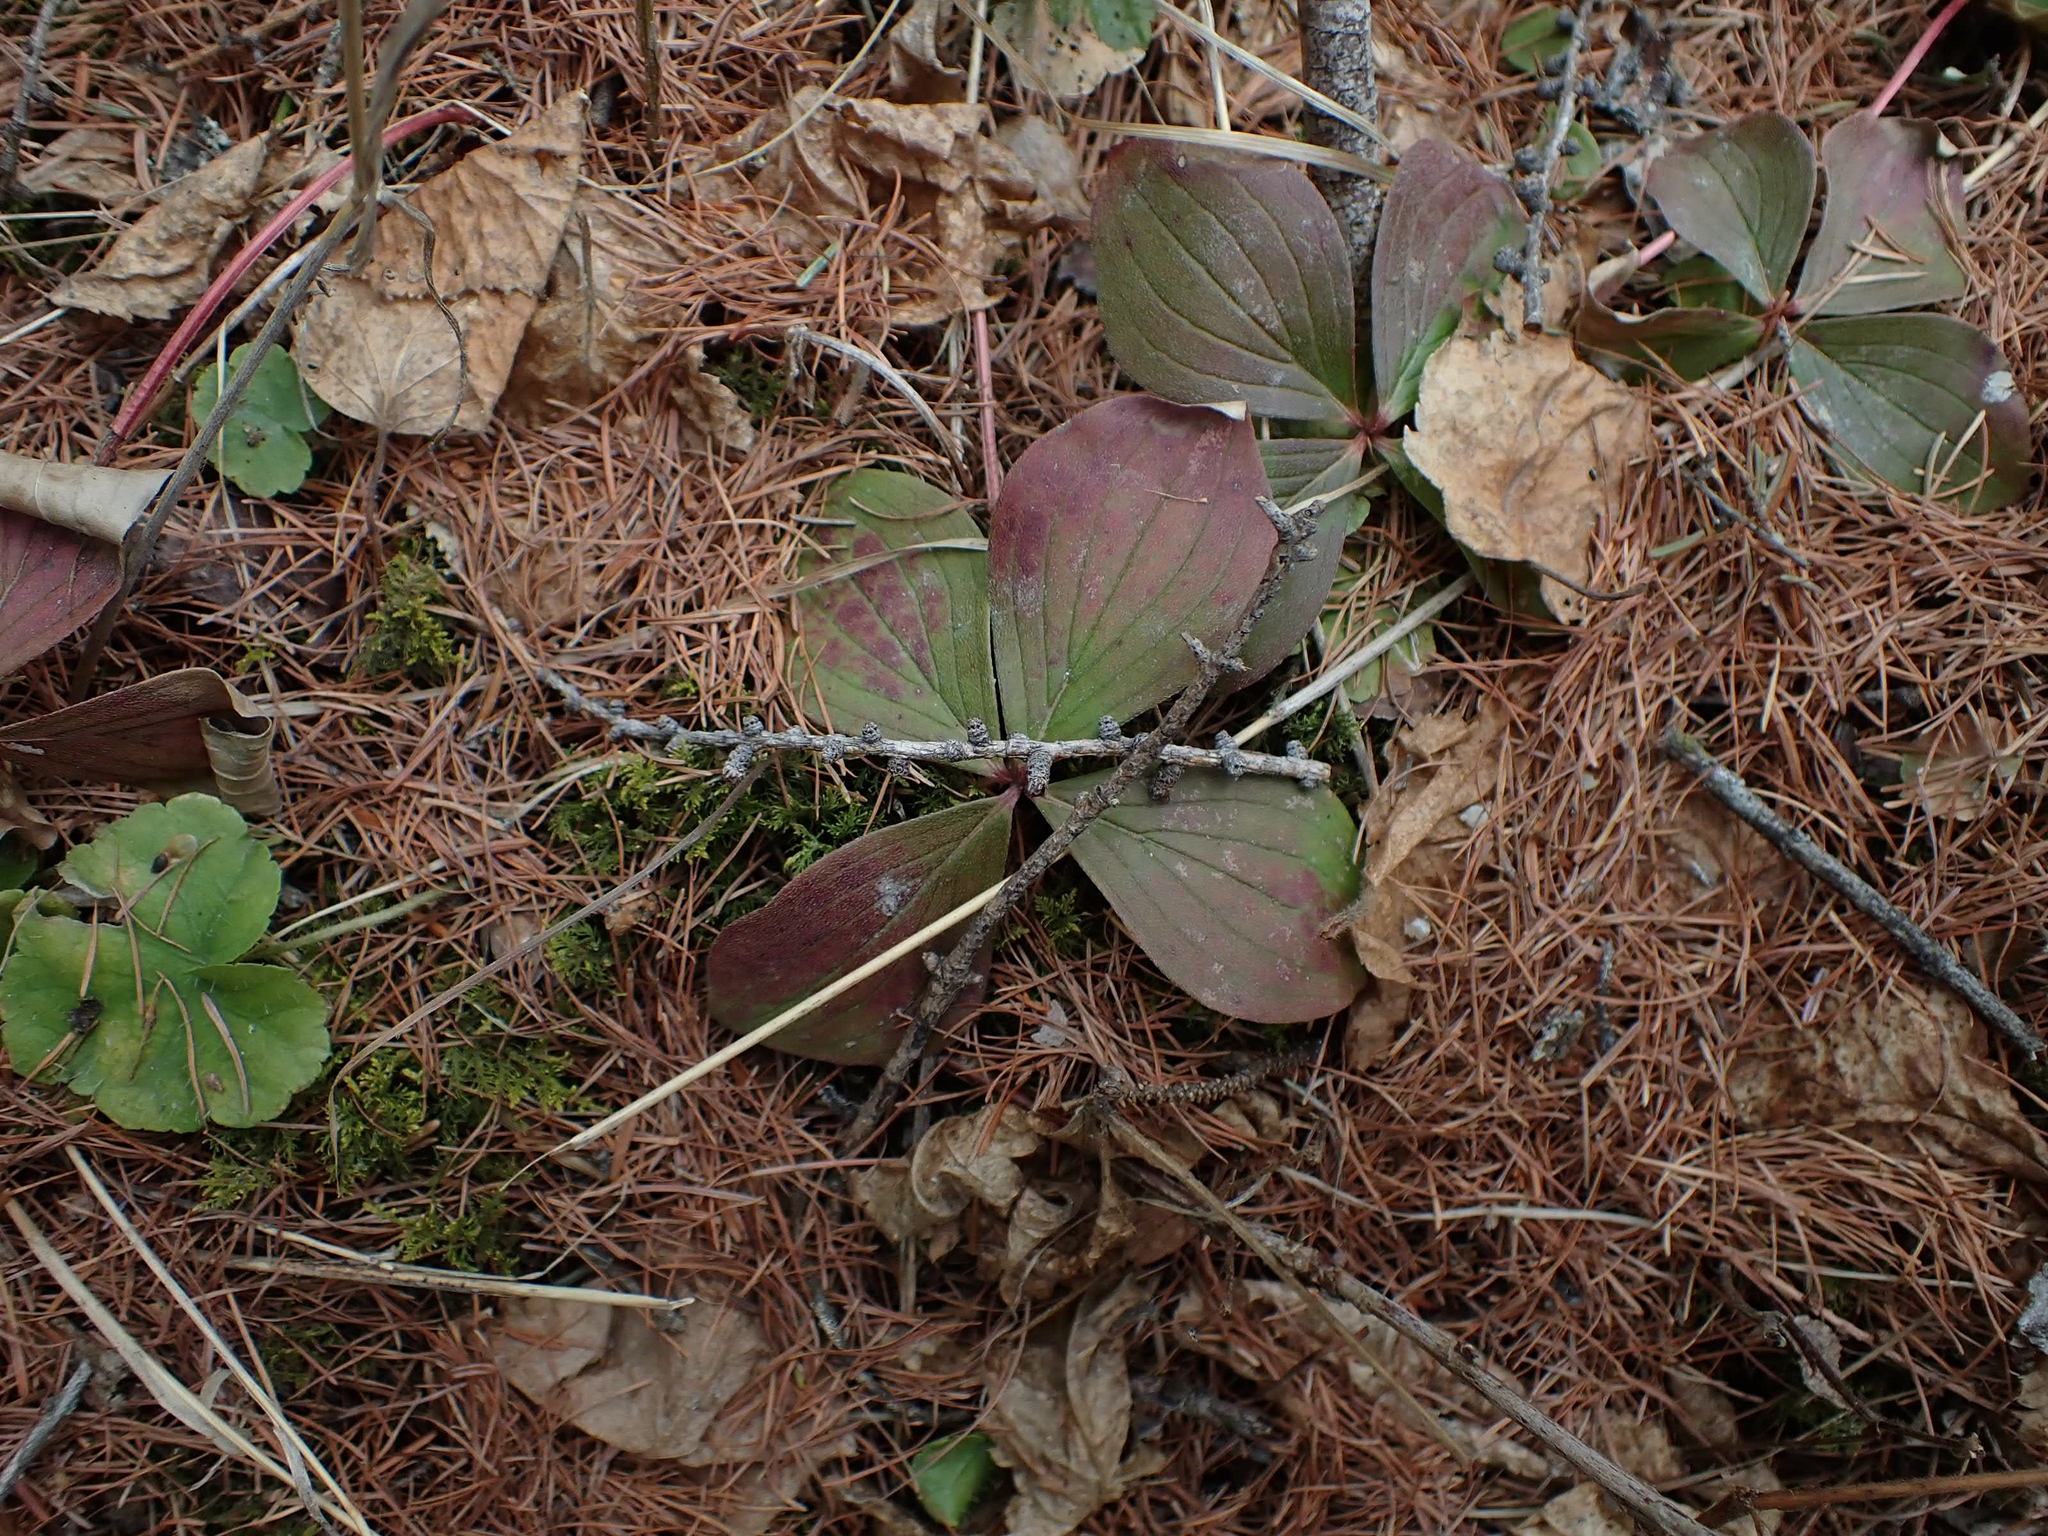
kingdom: Plantae
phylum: Tracheophyta
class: Magnoliopsida
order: Cornales
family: Cornaceae
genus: Cornus
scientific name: Cornus canadensis
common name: Creeping dogwood
